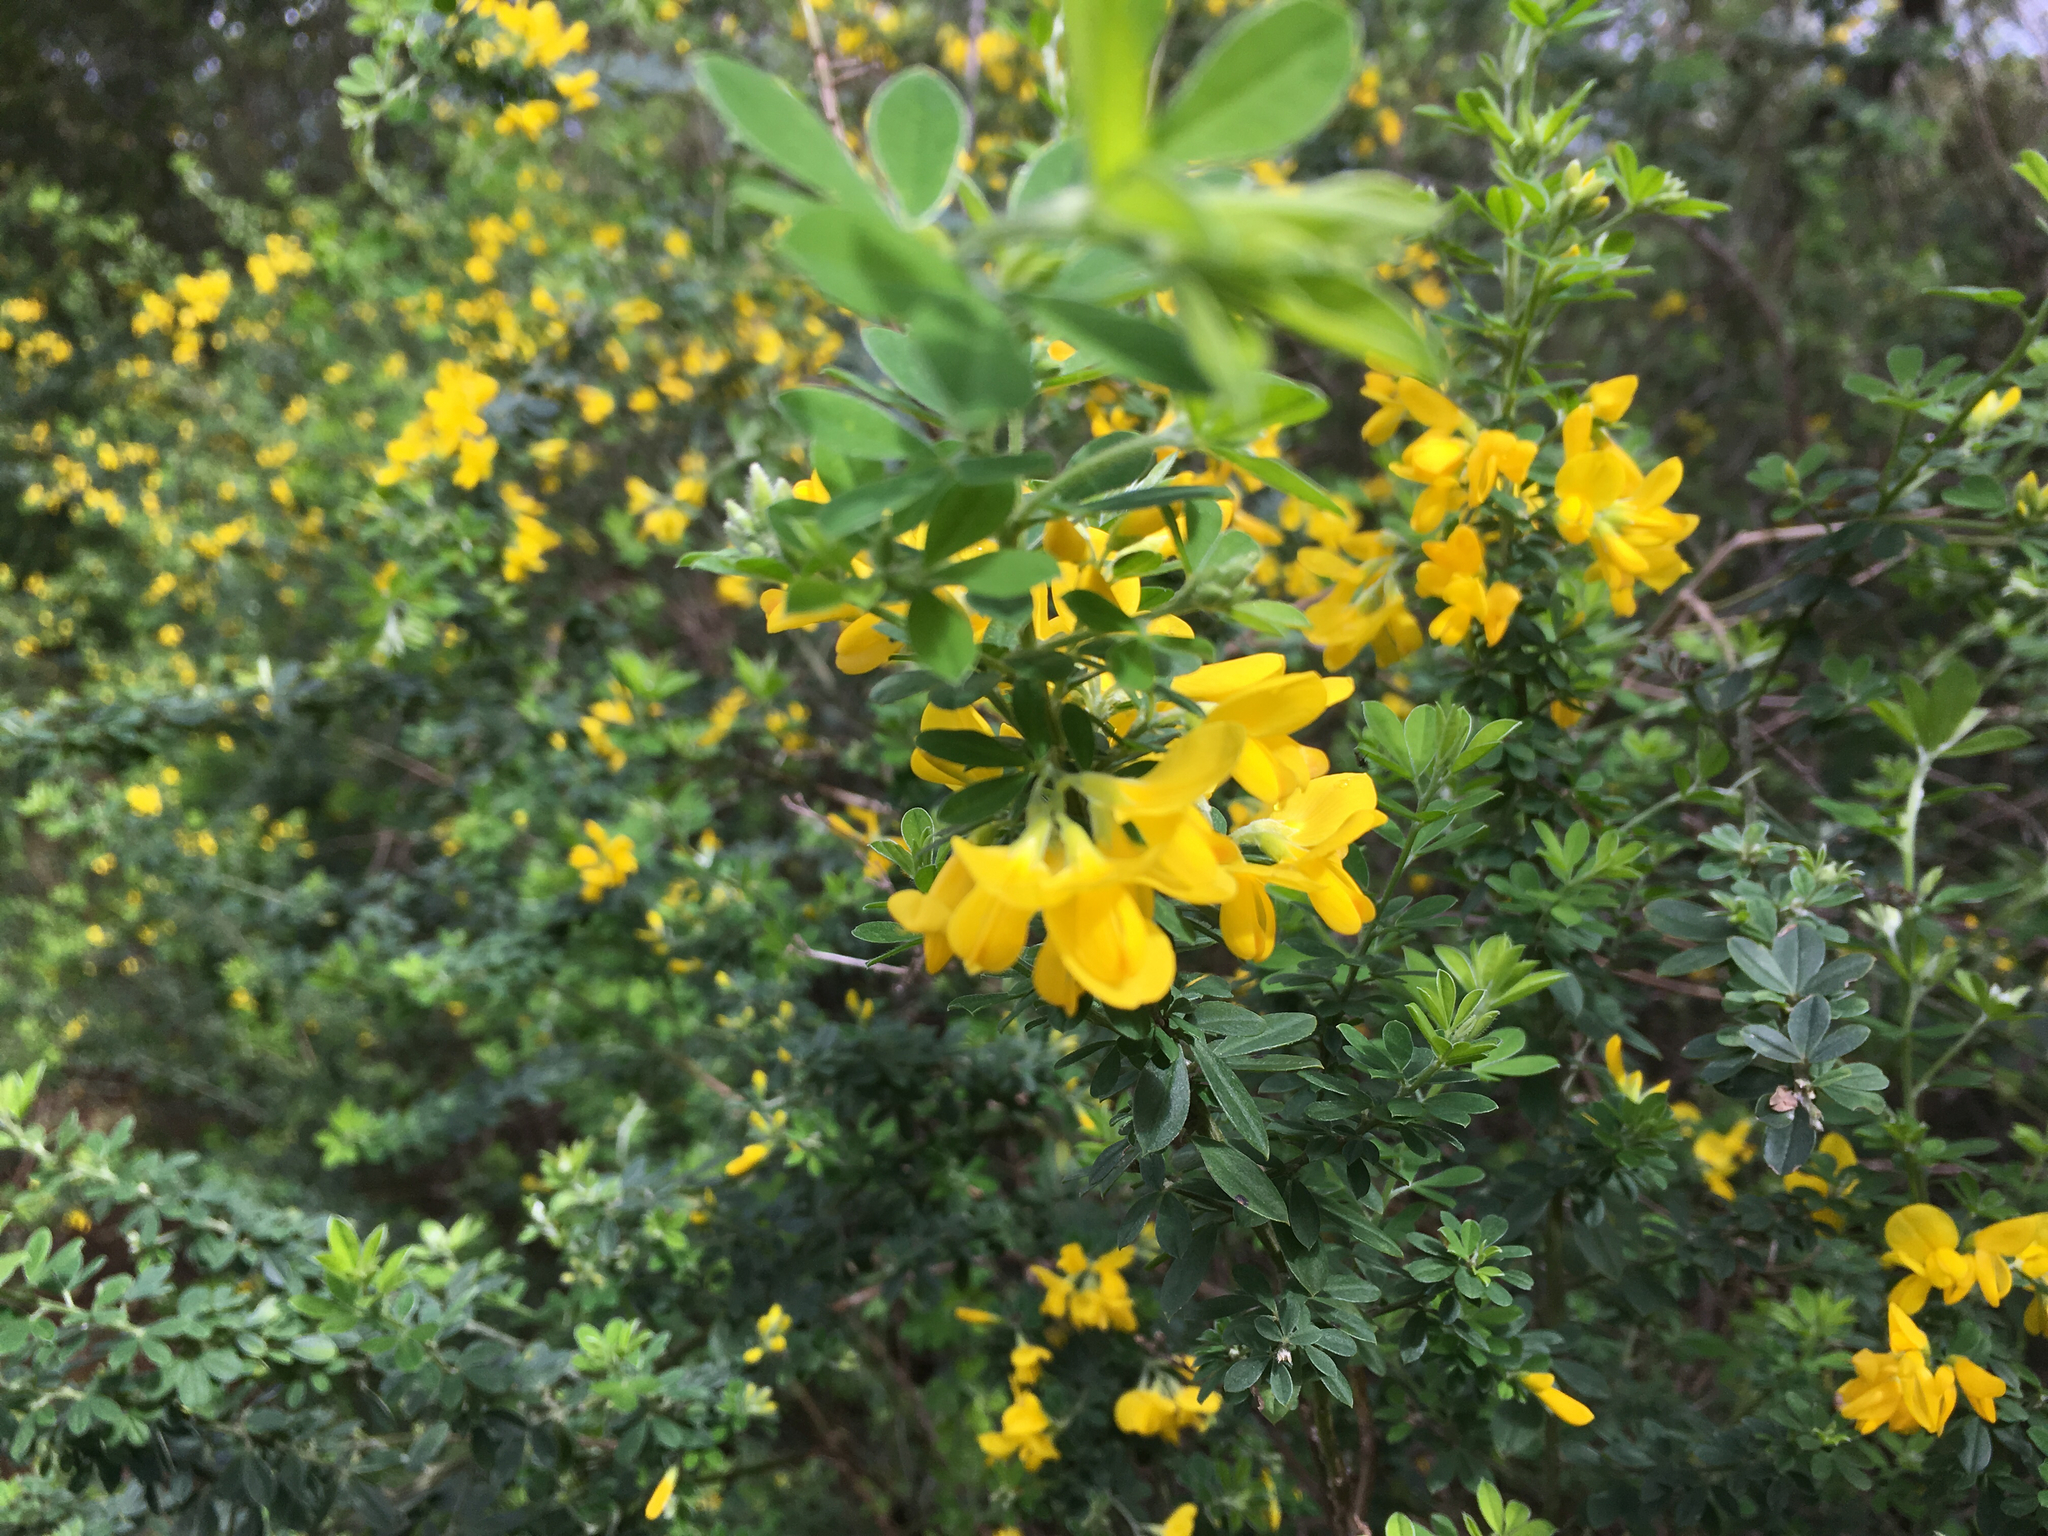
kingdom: Plantae
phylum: Tracheophyta
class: Magnoliopsida
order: Fabales
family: Fabaceae
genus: Genista
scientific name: Genista monspessulana
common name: Montpellier broom
